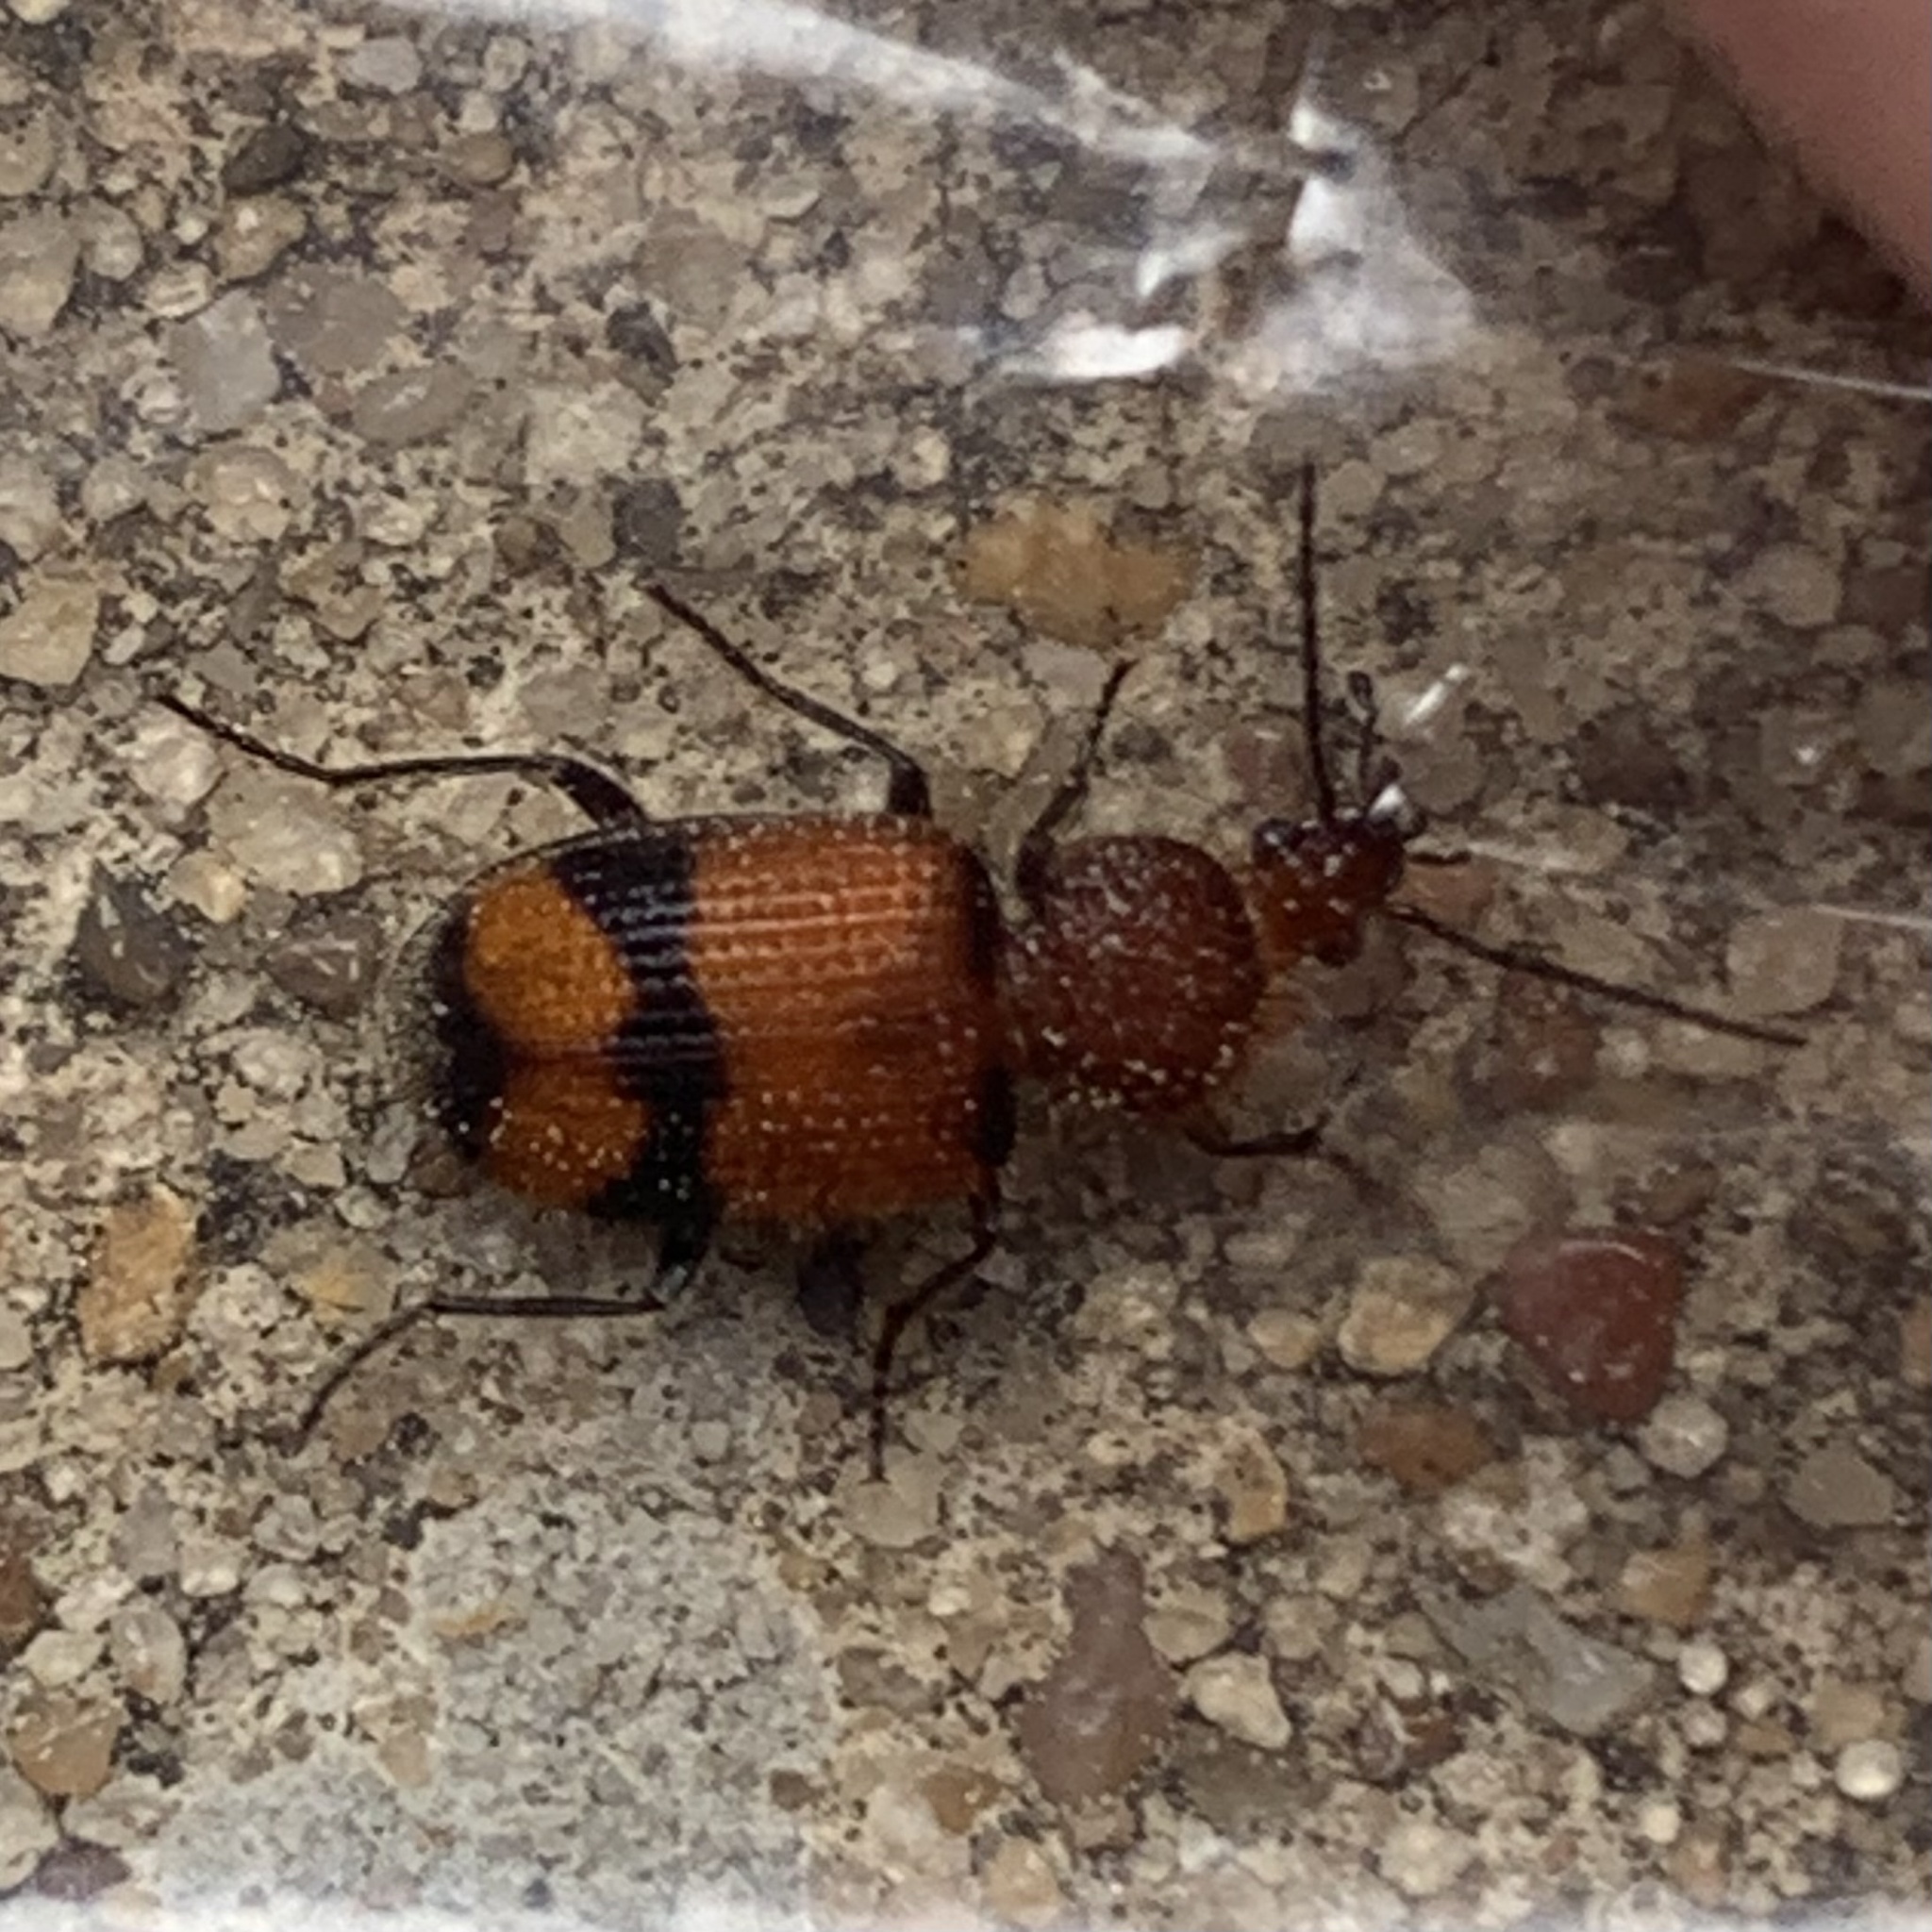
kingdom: Animalia
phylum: Arthropoda
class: Insecta
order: Coleoptera
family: Carabidae
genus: Panagaeus
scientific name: Panagaeus fasciatus
